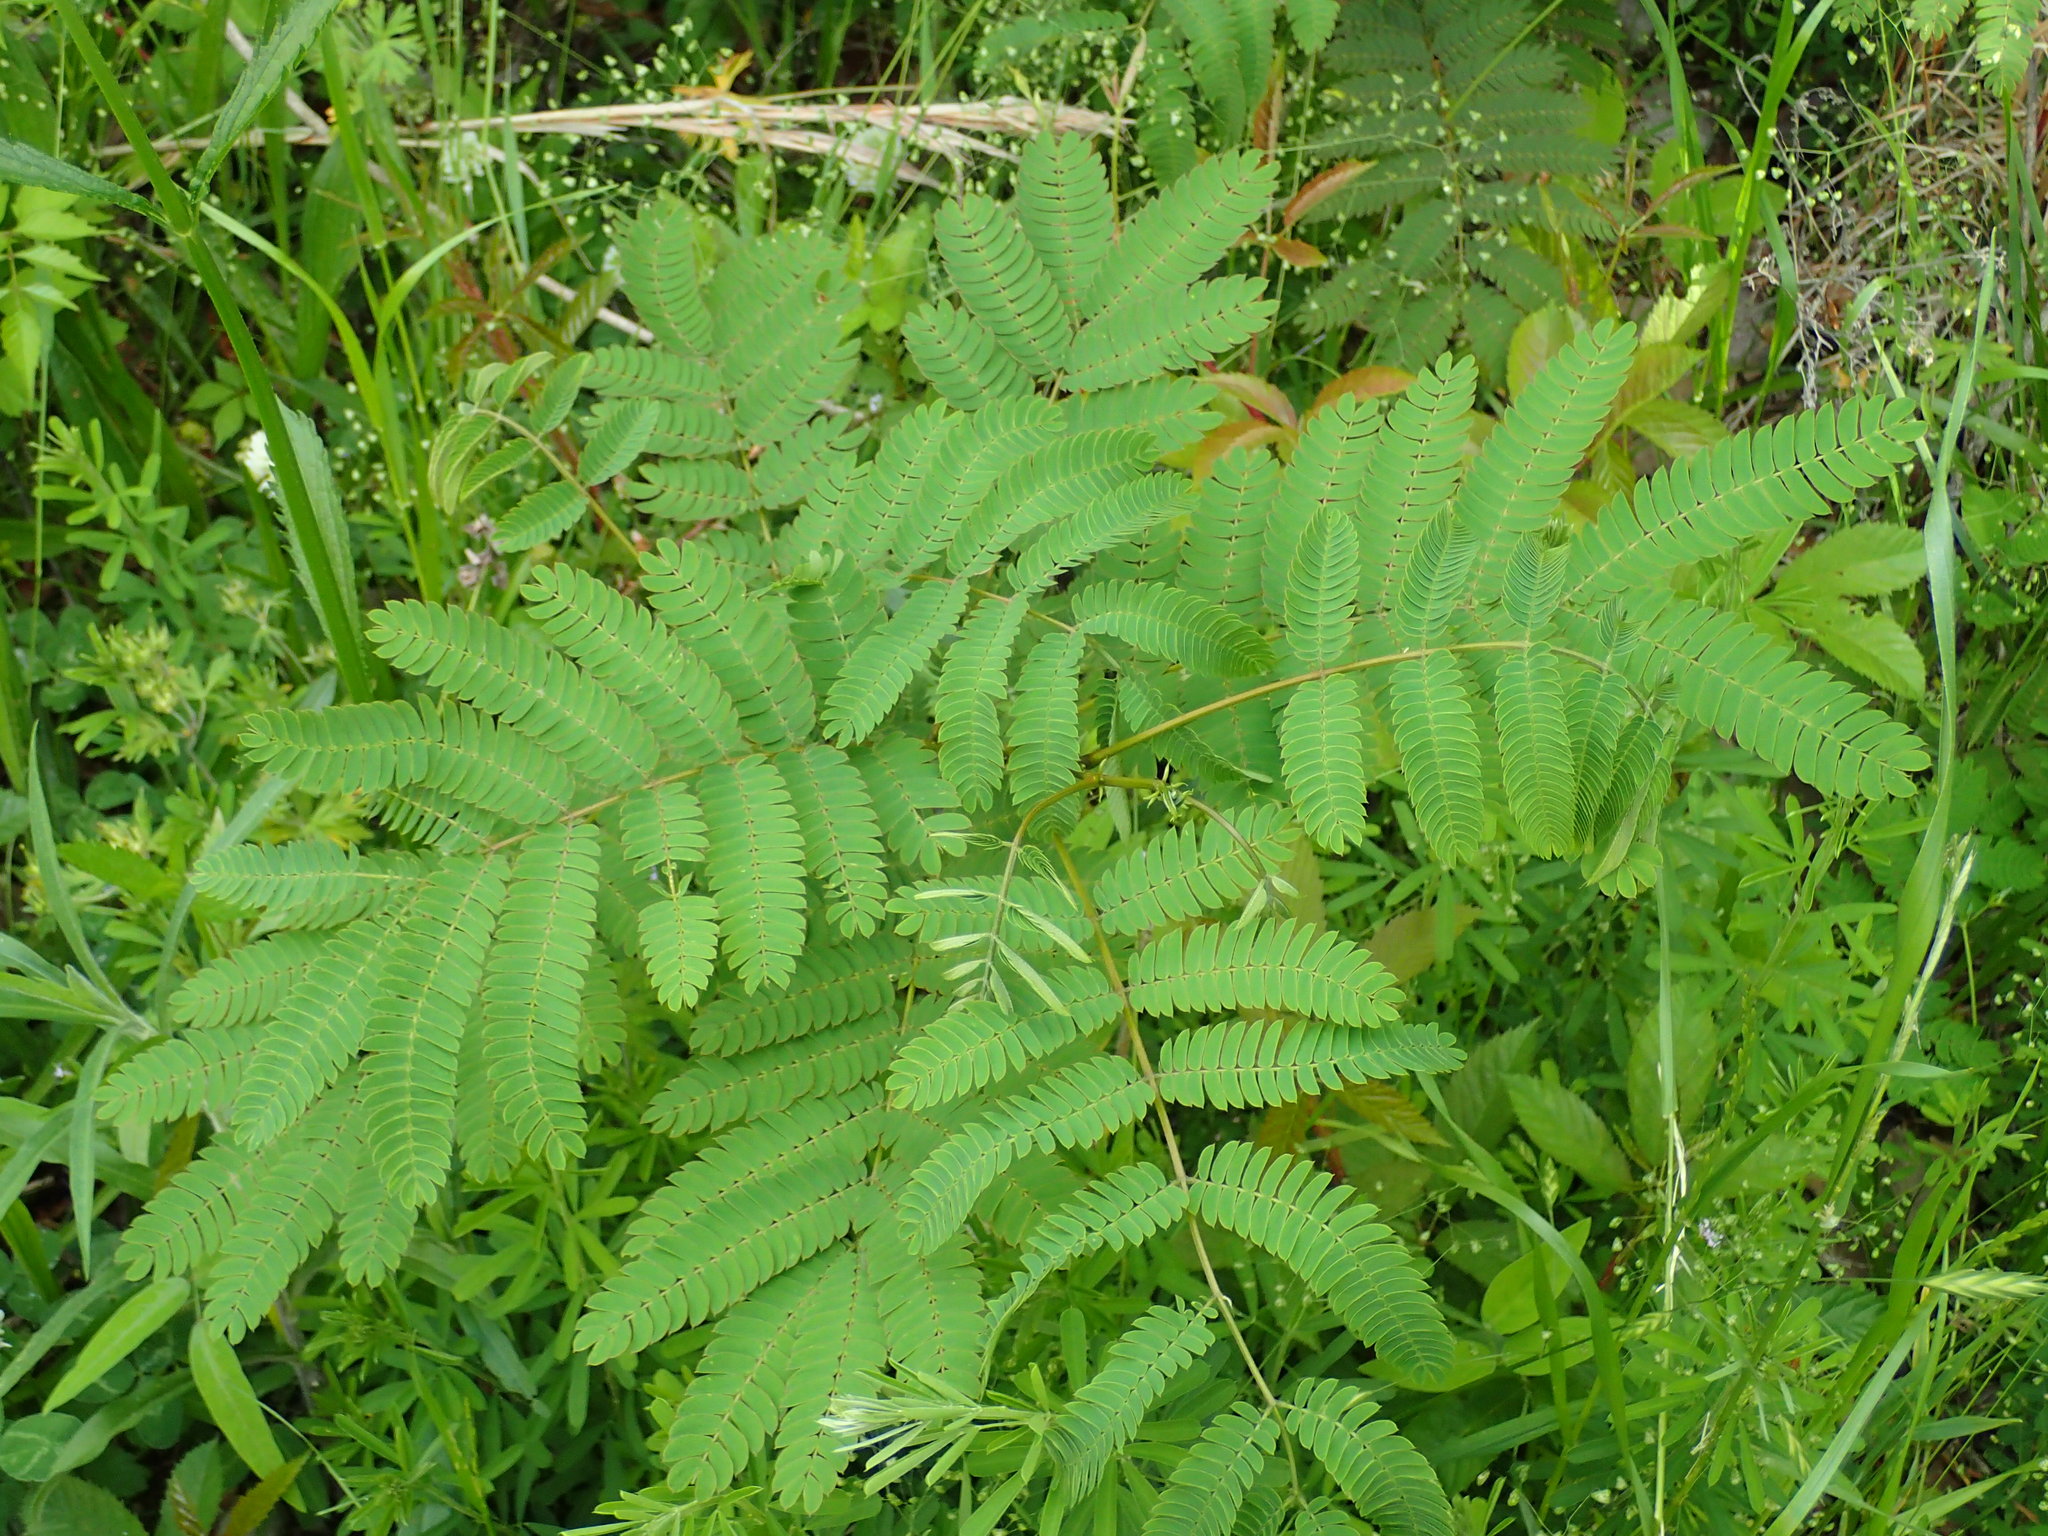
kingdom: Plantae
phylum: Tracheophyta
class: Magnoliopsida
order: Fabales
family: Fabaceae
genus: Albizia
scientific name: Albizia julibrissin
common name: Silktree
